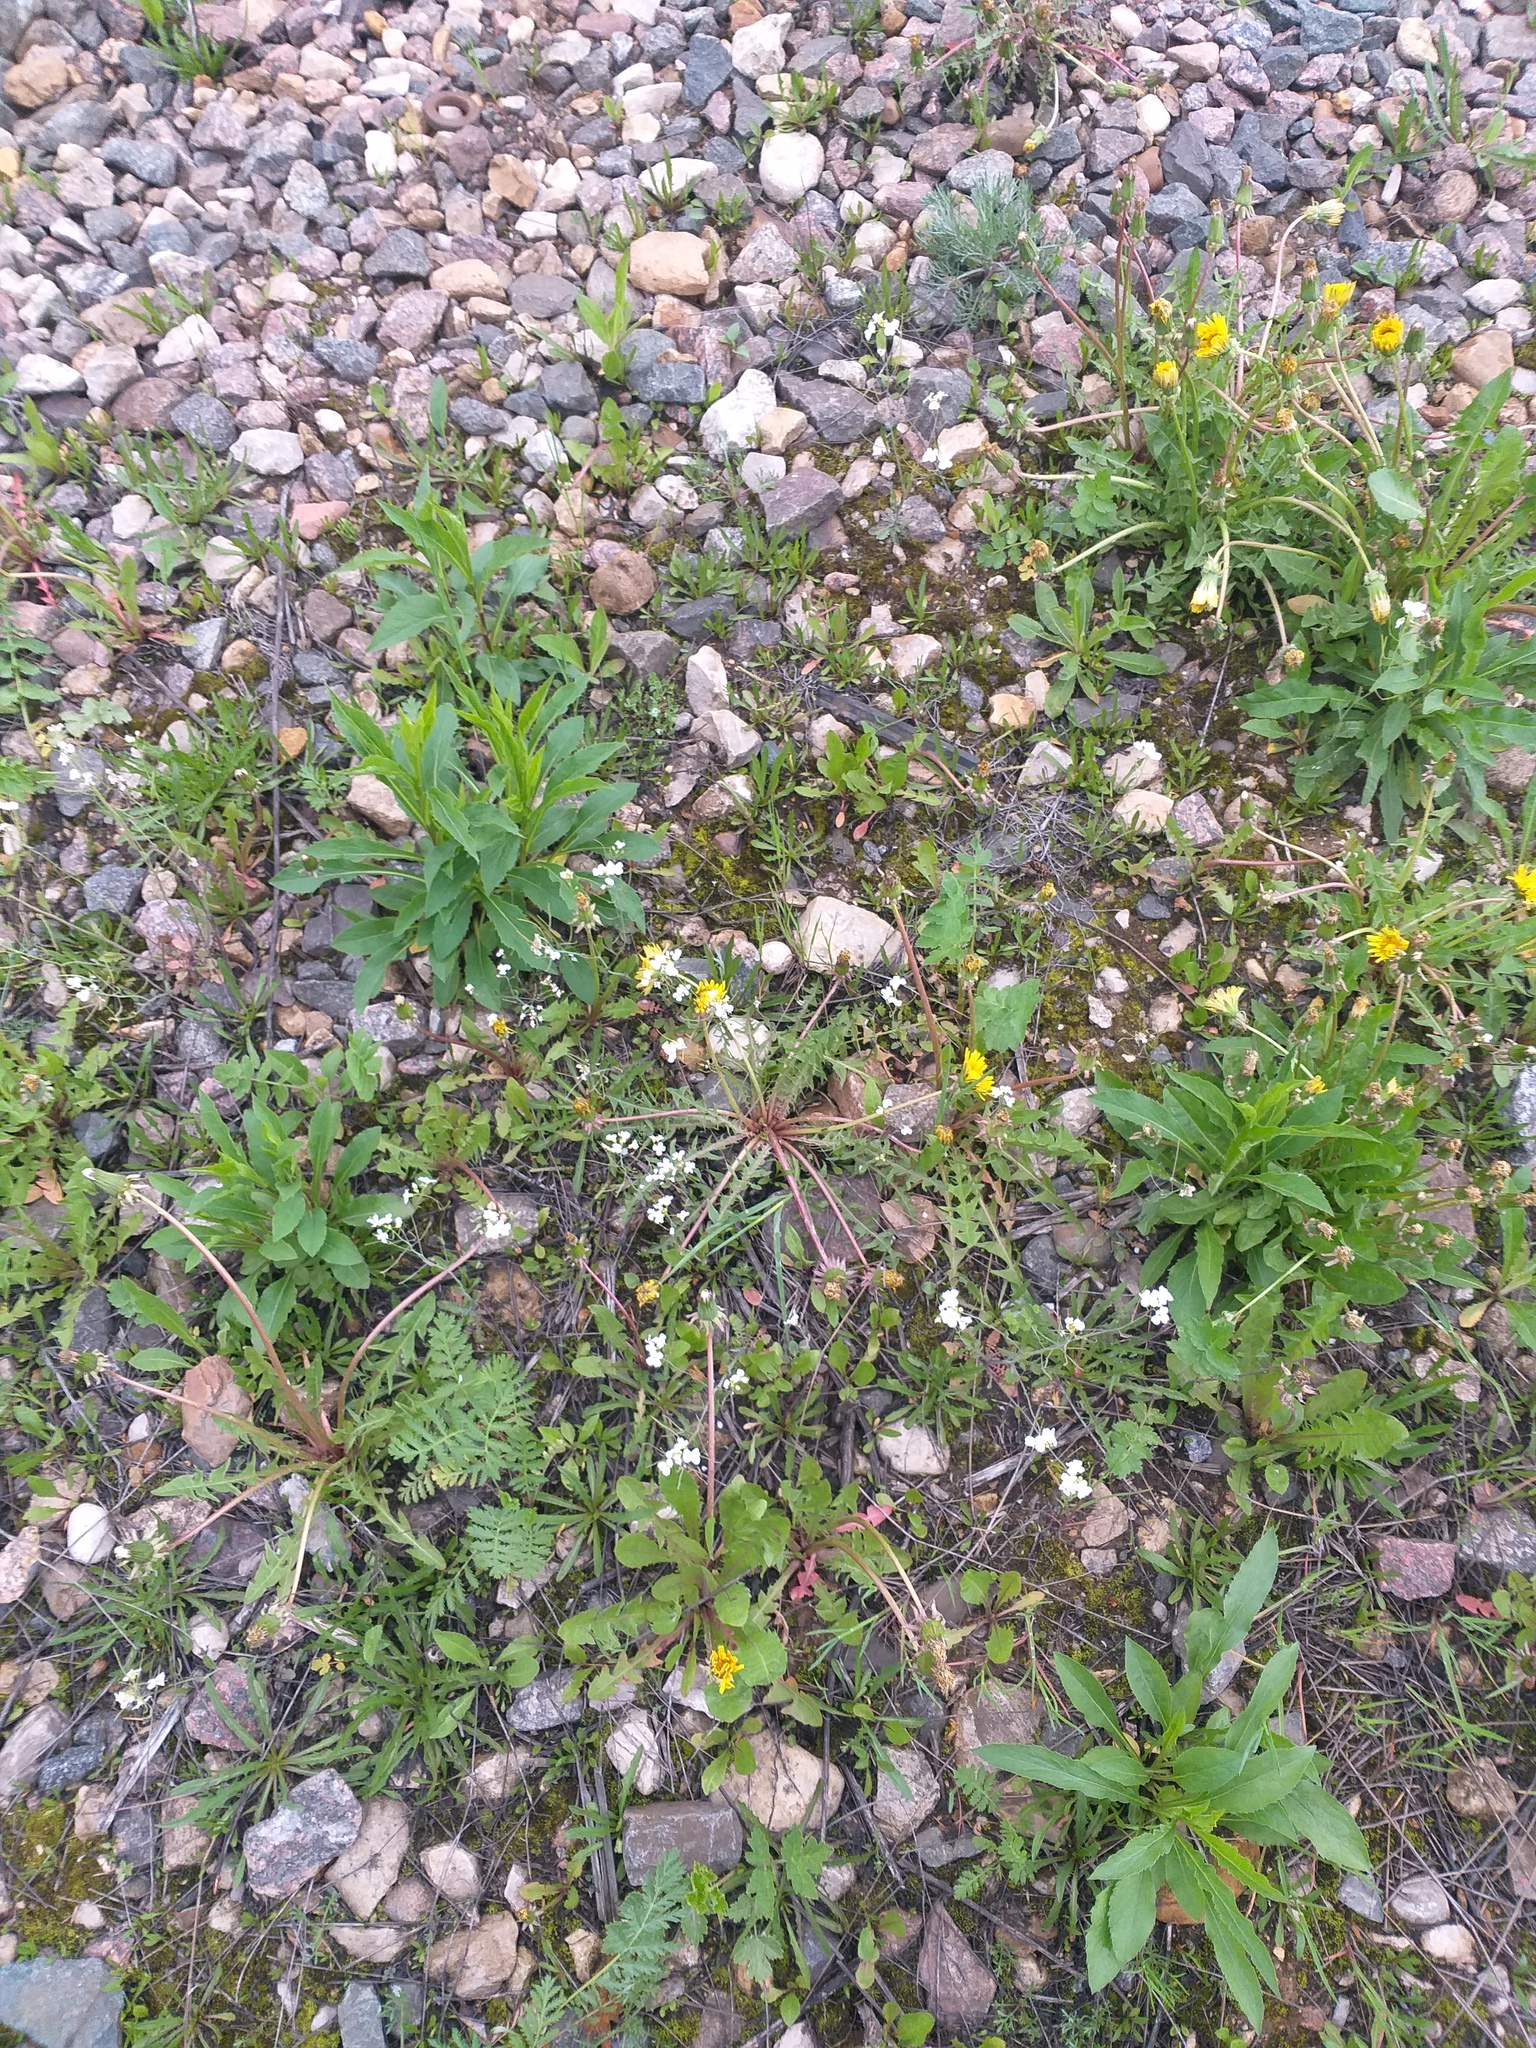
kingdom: Plantae
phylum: Tracheophyta
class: Magnoliopsida
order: Brassicales
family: Brassicaceae
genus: Arabidopsis
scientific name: Arabidopsis arenosa
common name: Sand rock-cress
